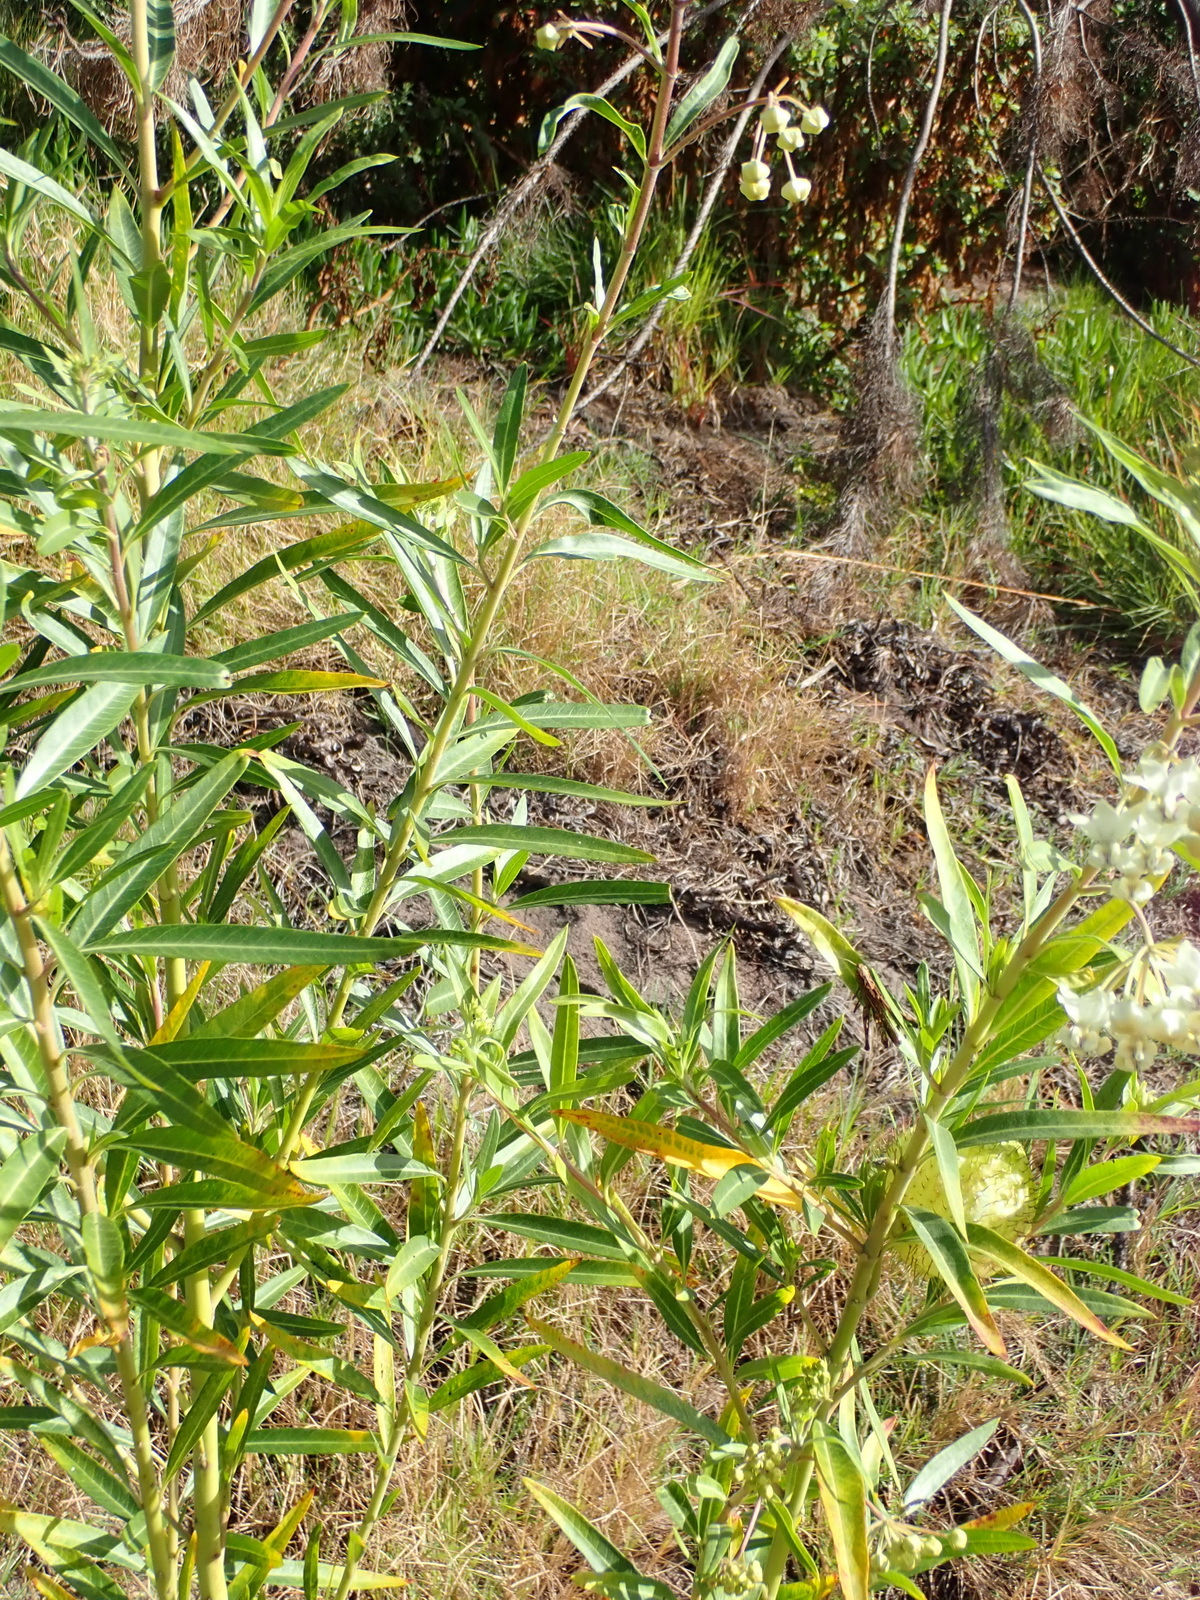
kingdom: Plantae
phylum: Tracheophyta
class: Magnoliopsida
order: Gentianales
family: Apocynaceae
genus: Gomphocarpus
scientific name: Gomphocarpus physocarpus
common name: Balloon cotton bush
